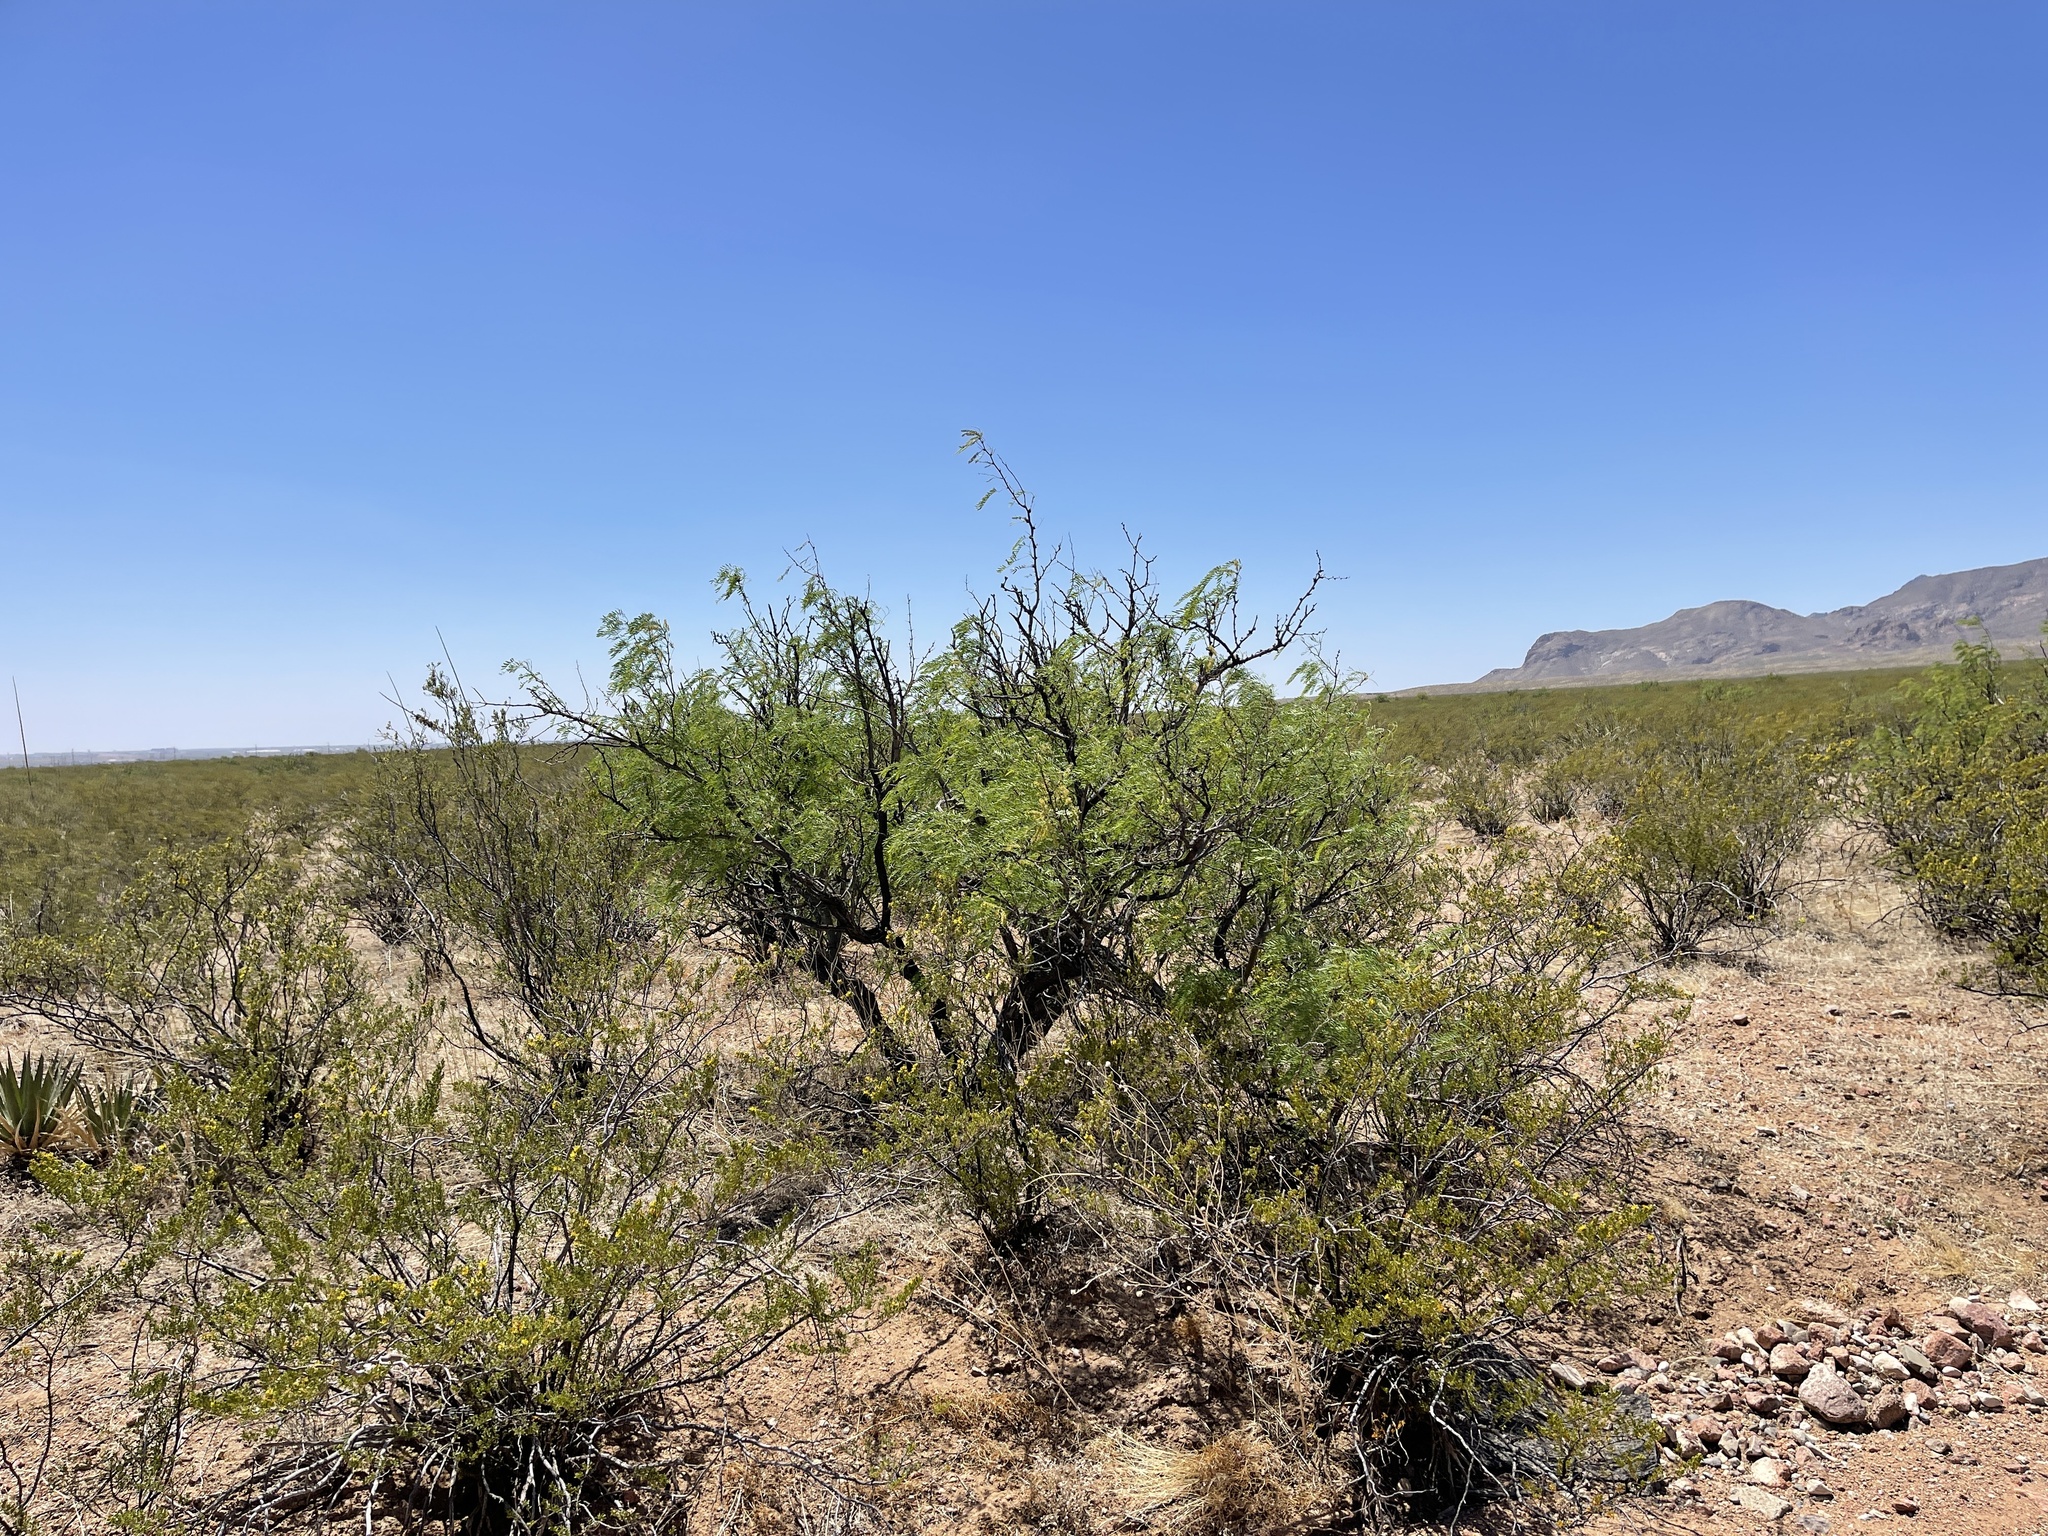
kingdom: Plantae
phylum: Tracheophyta
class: Magnoliopsida
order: Fabales
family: Fabaceae
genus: Prosopis
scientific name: Prosopis glandulosa
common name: Honey mesquite
